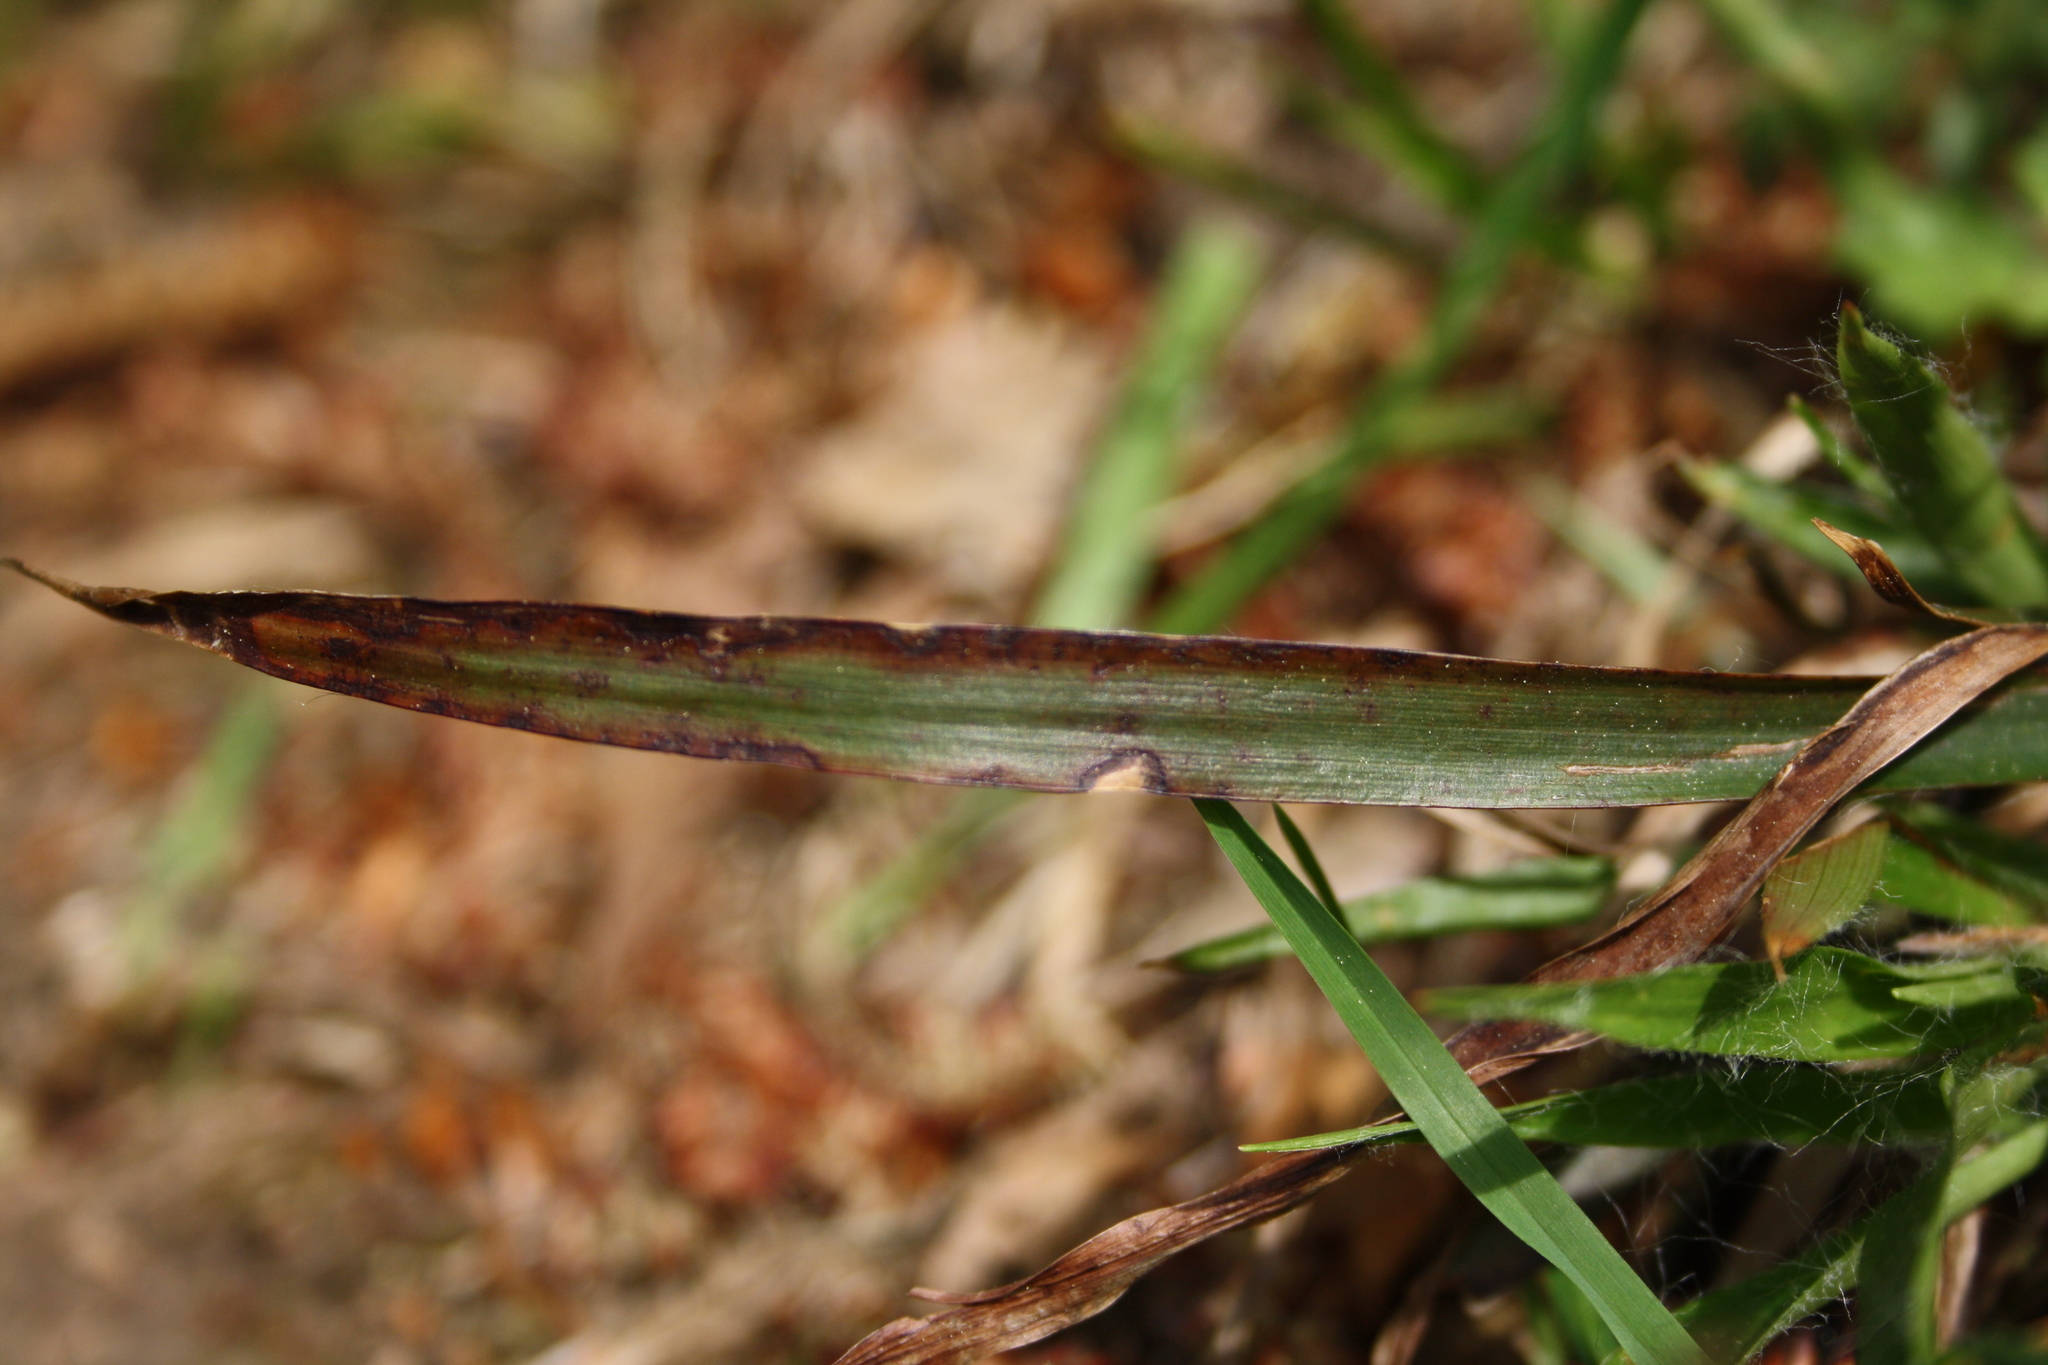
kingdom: Plantae
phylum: Tracheophyta
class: Liliopsida
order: Poales
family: Juncaceae
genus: Luzula
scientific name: Luzula pilosa
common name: Hairy wood-rush
